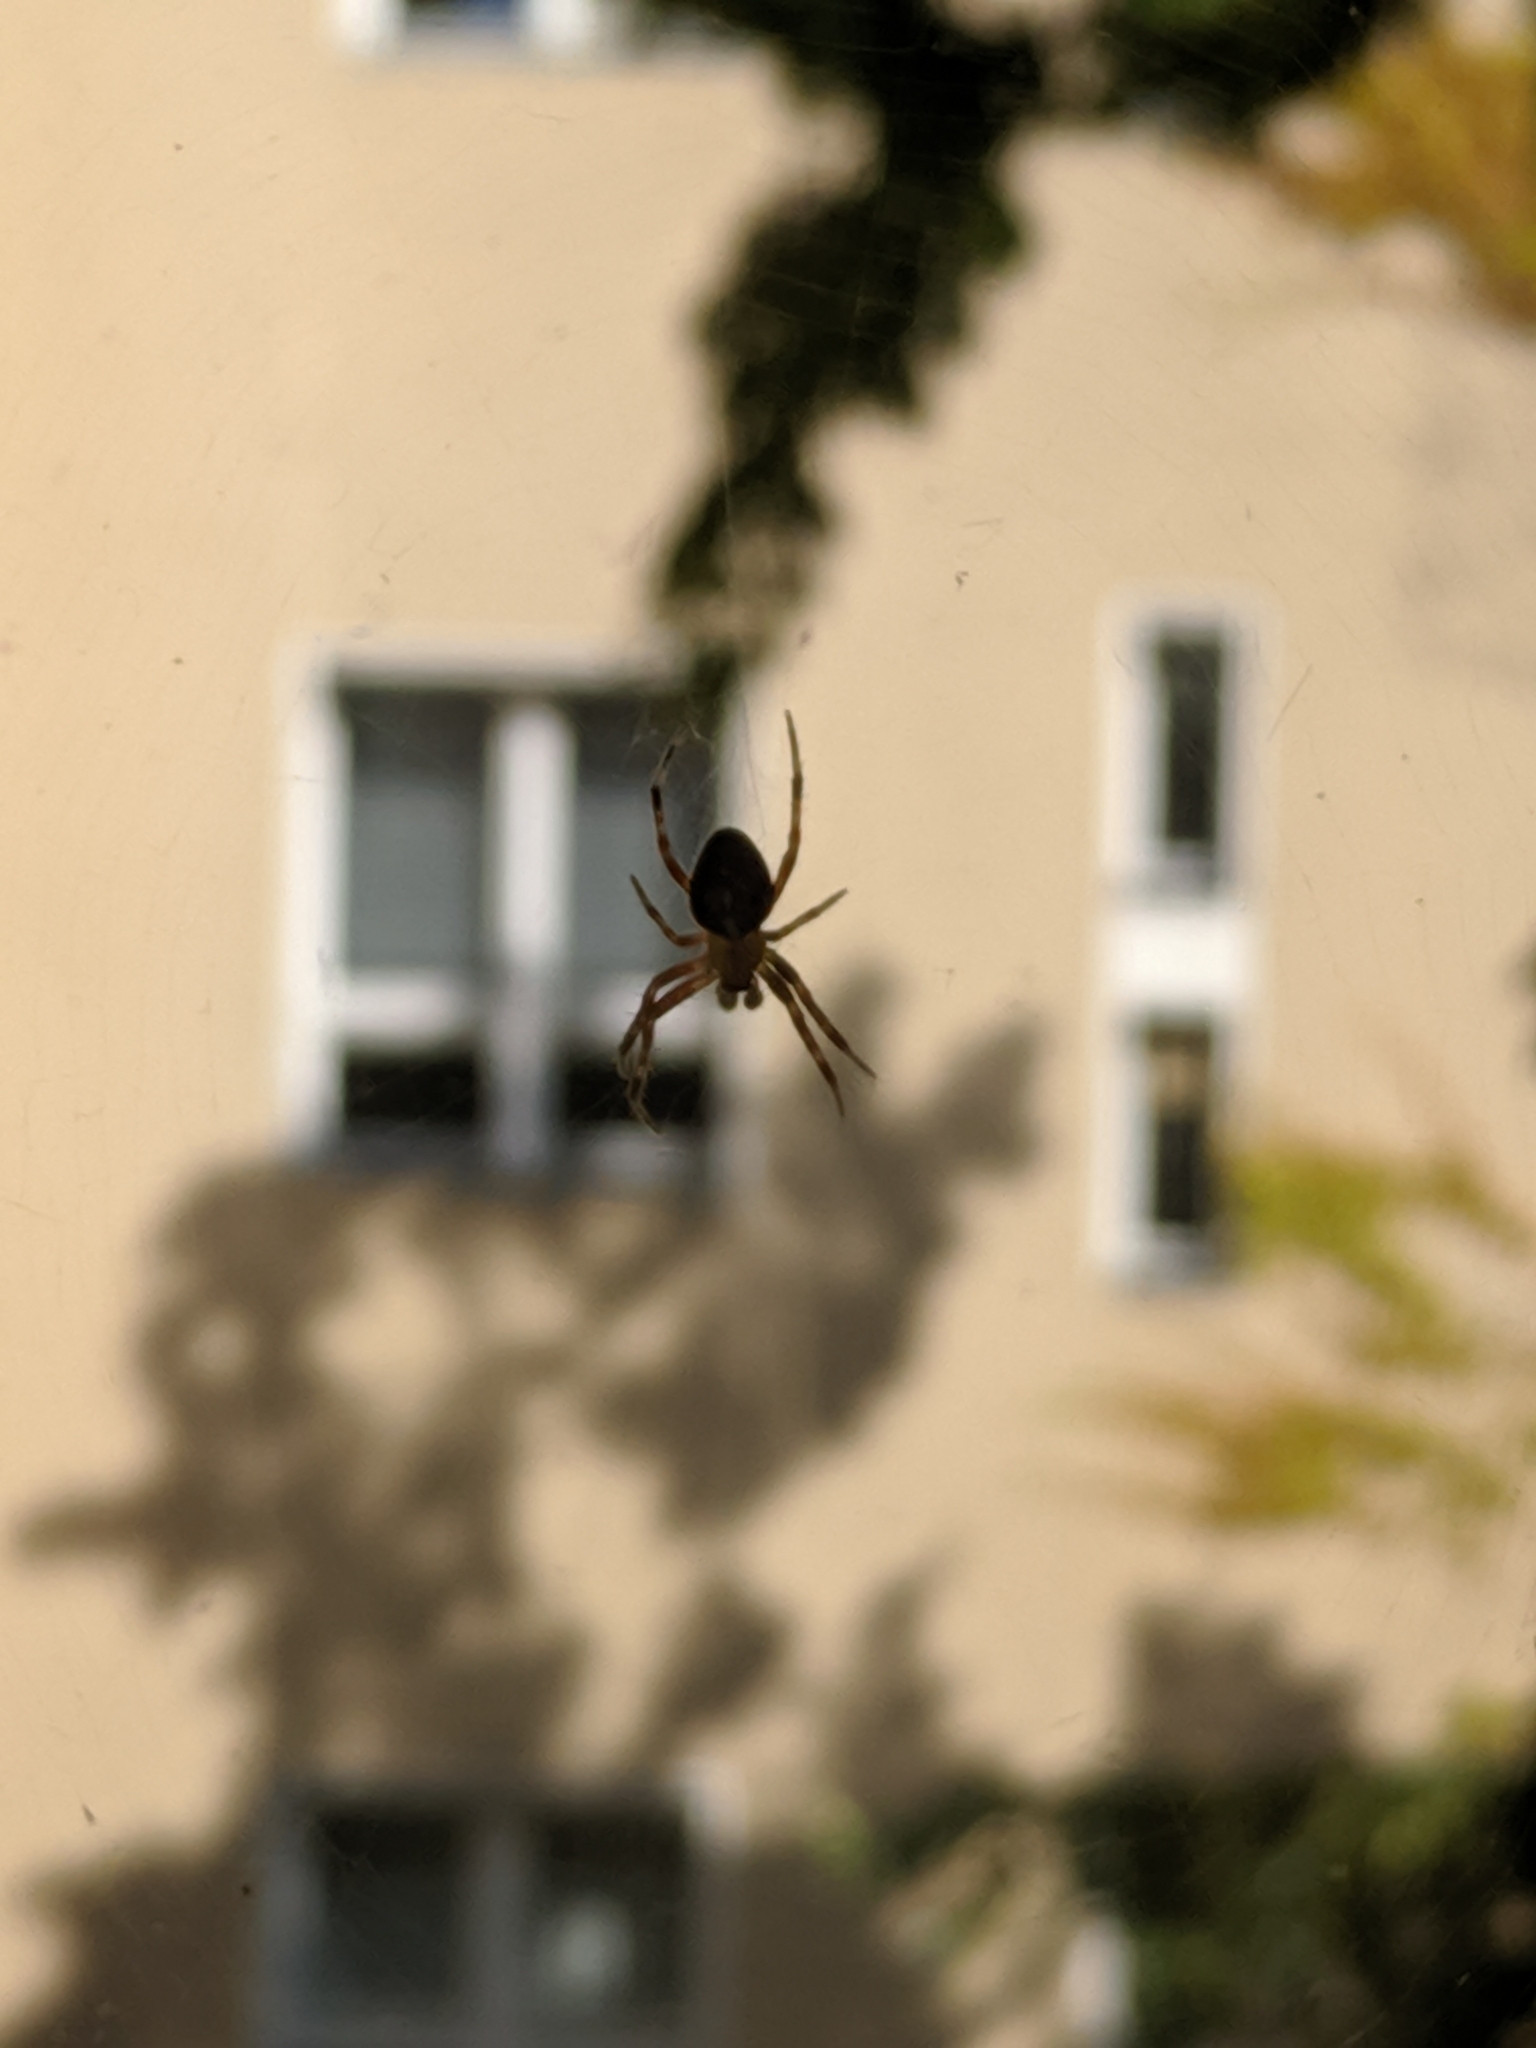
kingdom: Animalia
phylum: Arthropoda
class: Arachnida
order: Araneae
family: Araneidae
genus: Araneus
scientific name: Araneus diadematus
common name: Cross orbweaver
